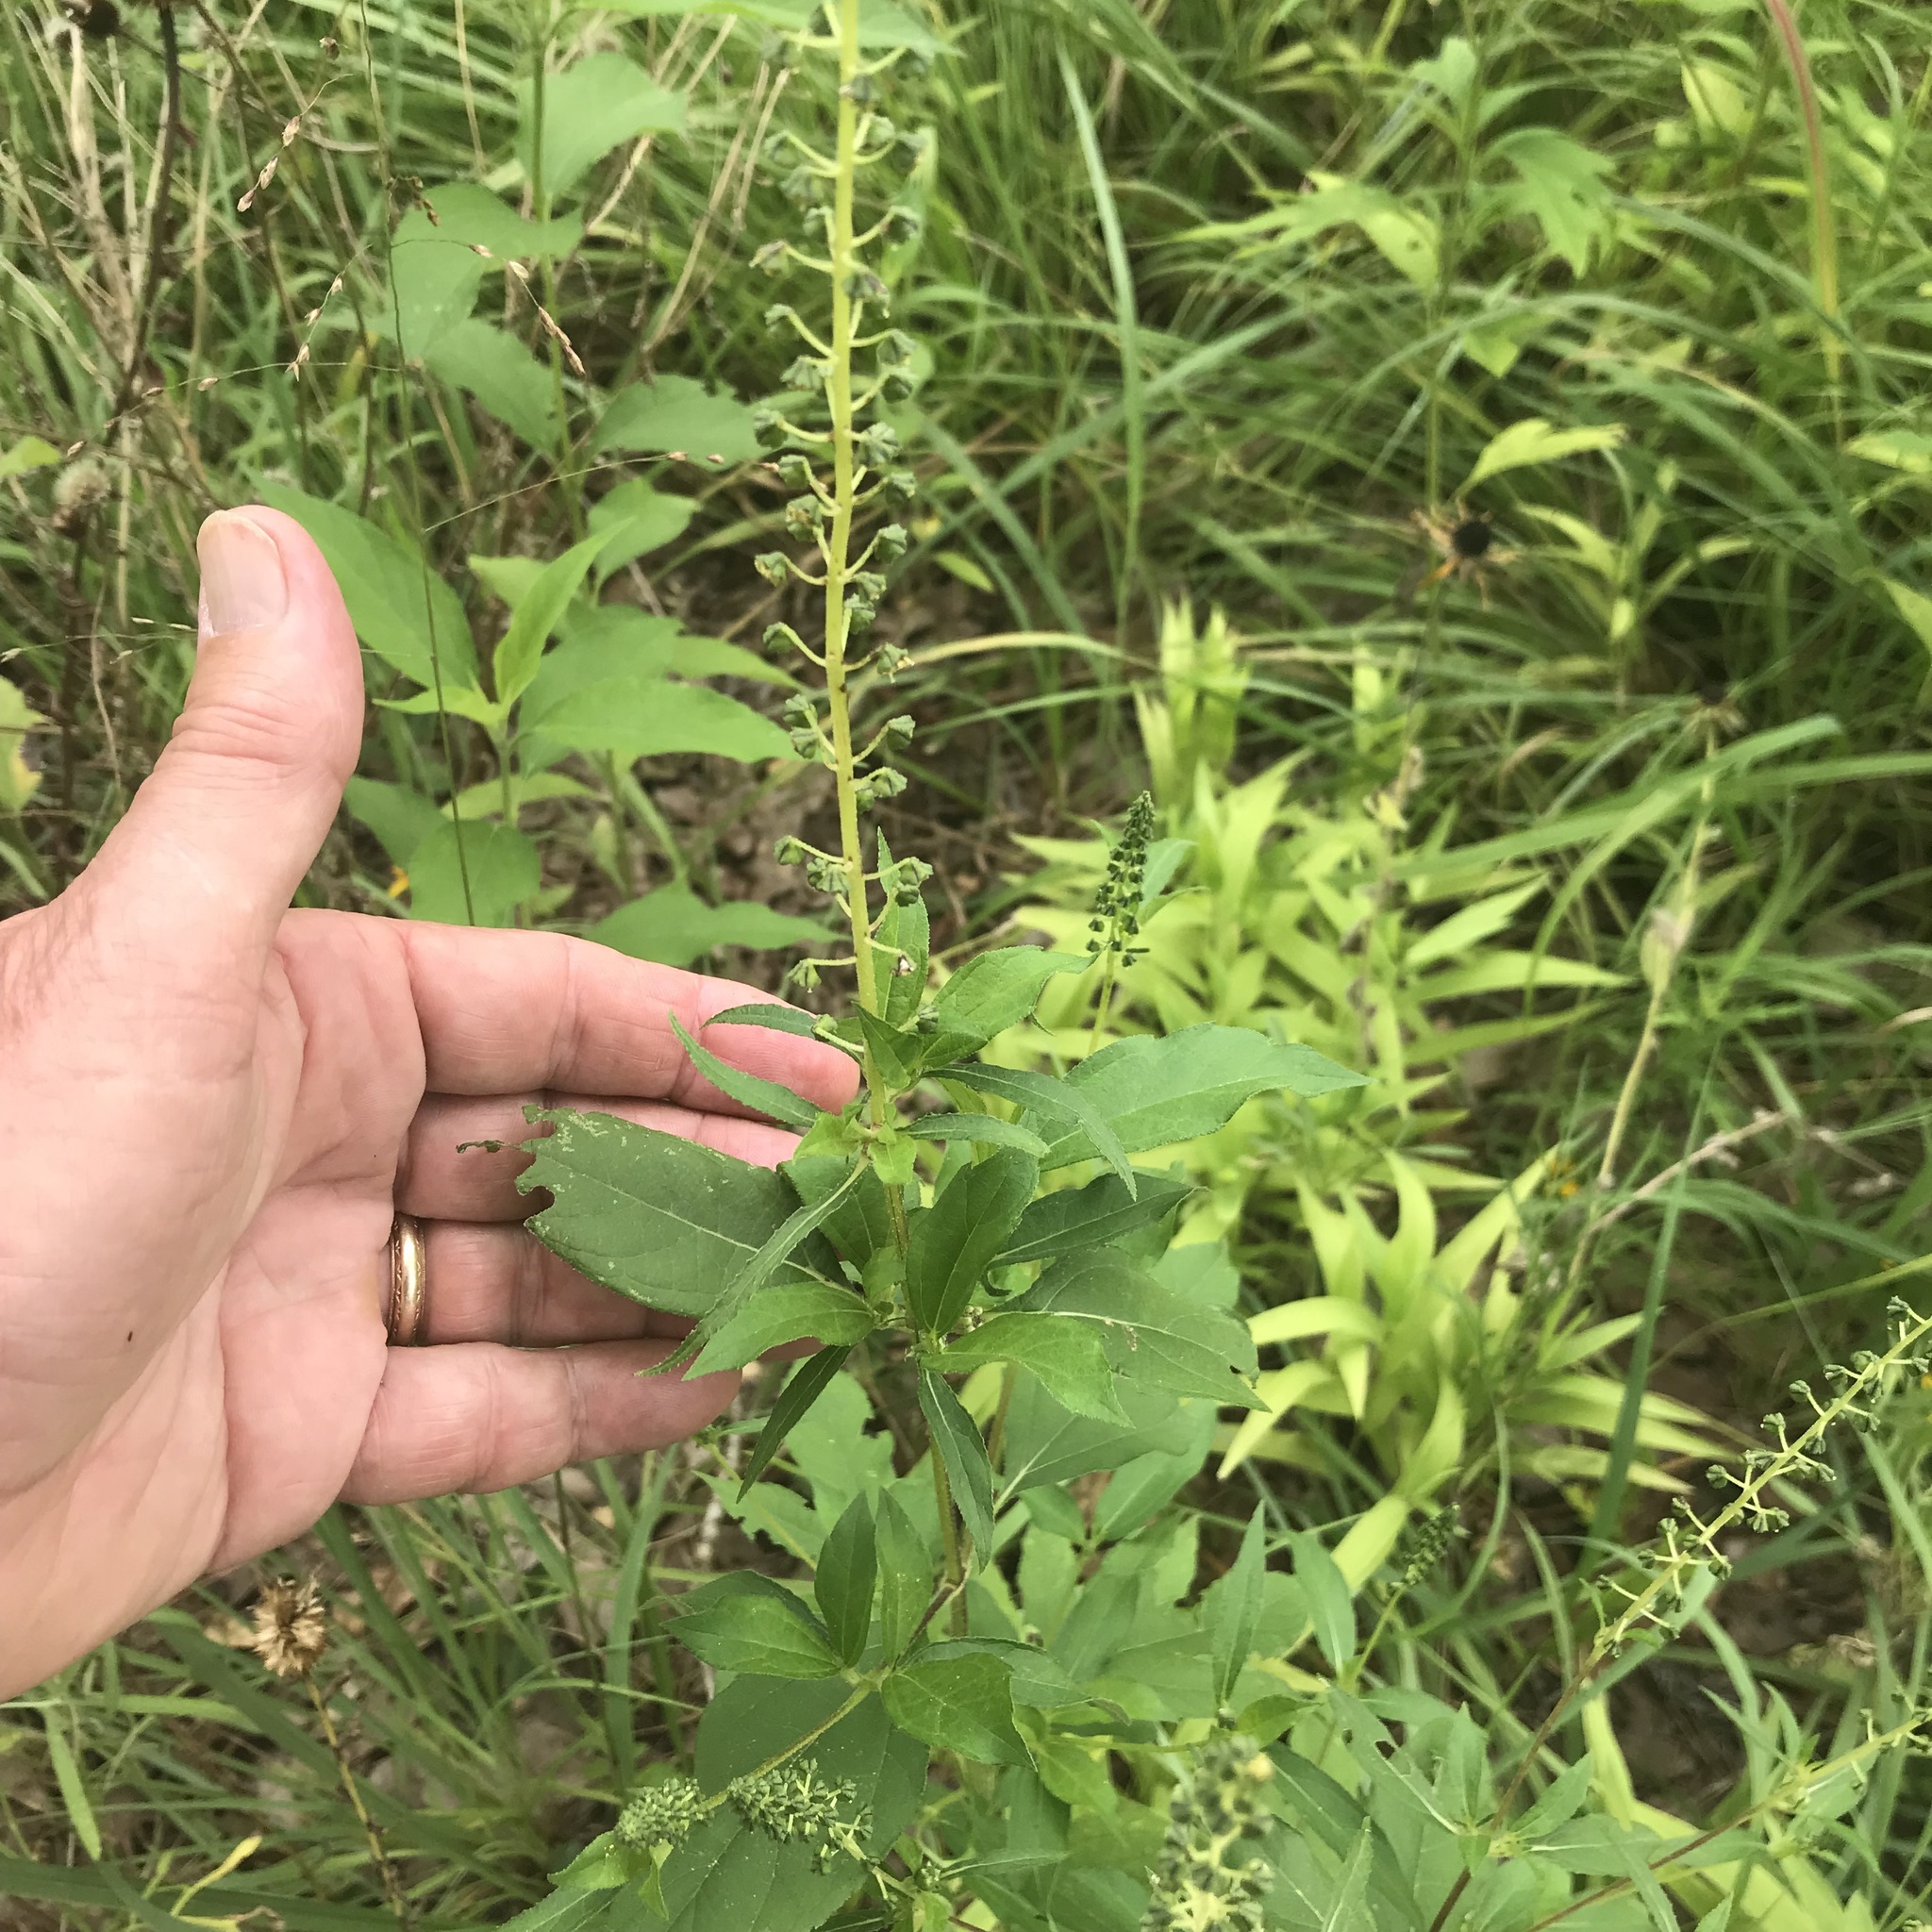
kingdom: Plantae
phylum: Tracheophyta
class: Magnoliopsida
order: Asterales
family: Asteraceae
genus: Ambrosia
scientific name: Ambrosia trifida
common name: Giant ragweed
